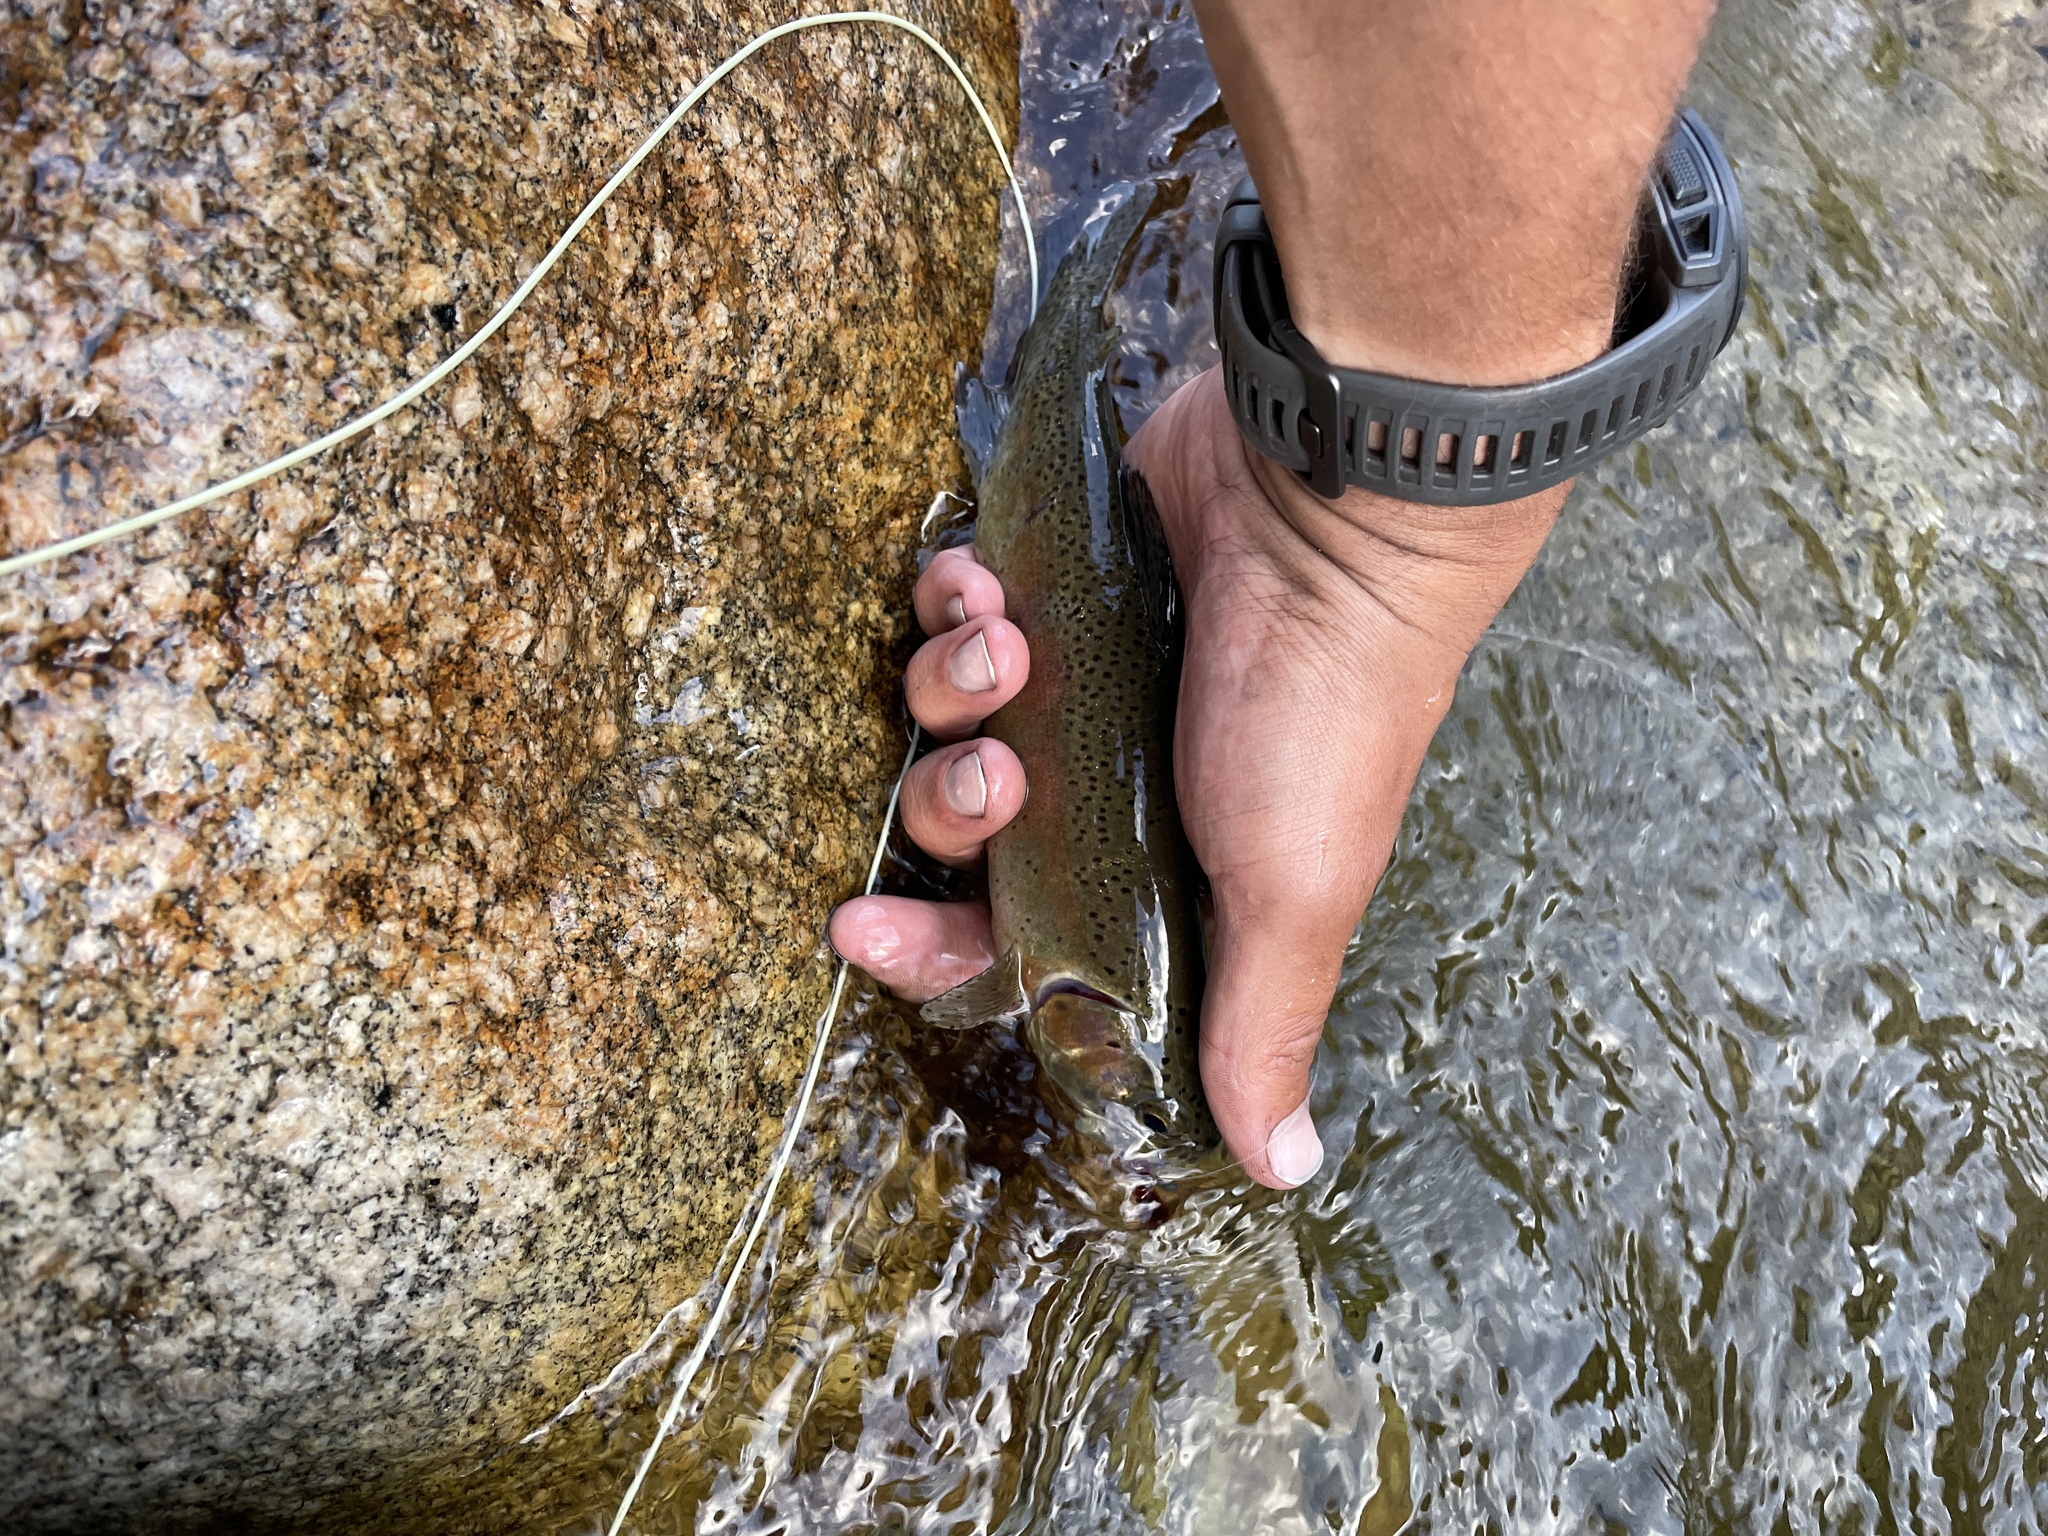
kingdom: Animalia
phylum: Chordata
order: Salmoniformes
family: Salmonidae
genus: Oncorhynchus
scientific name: Oncorhynchus mykiss
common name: Rainbow trout
